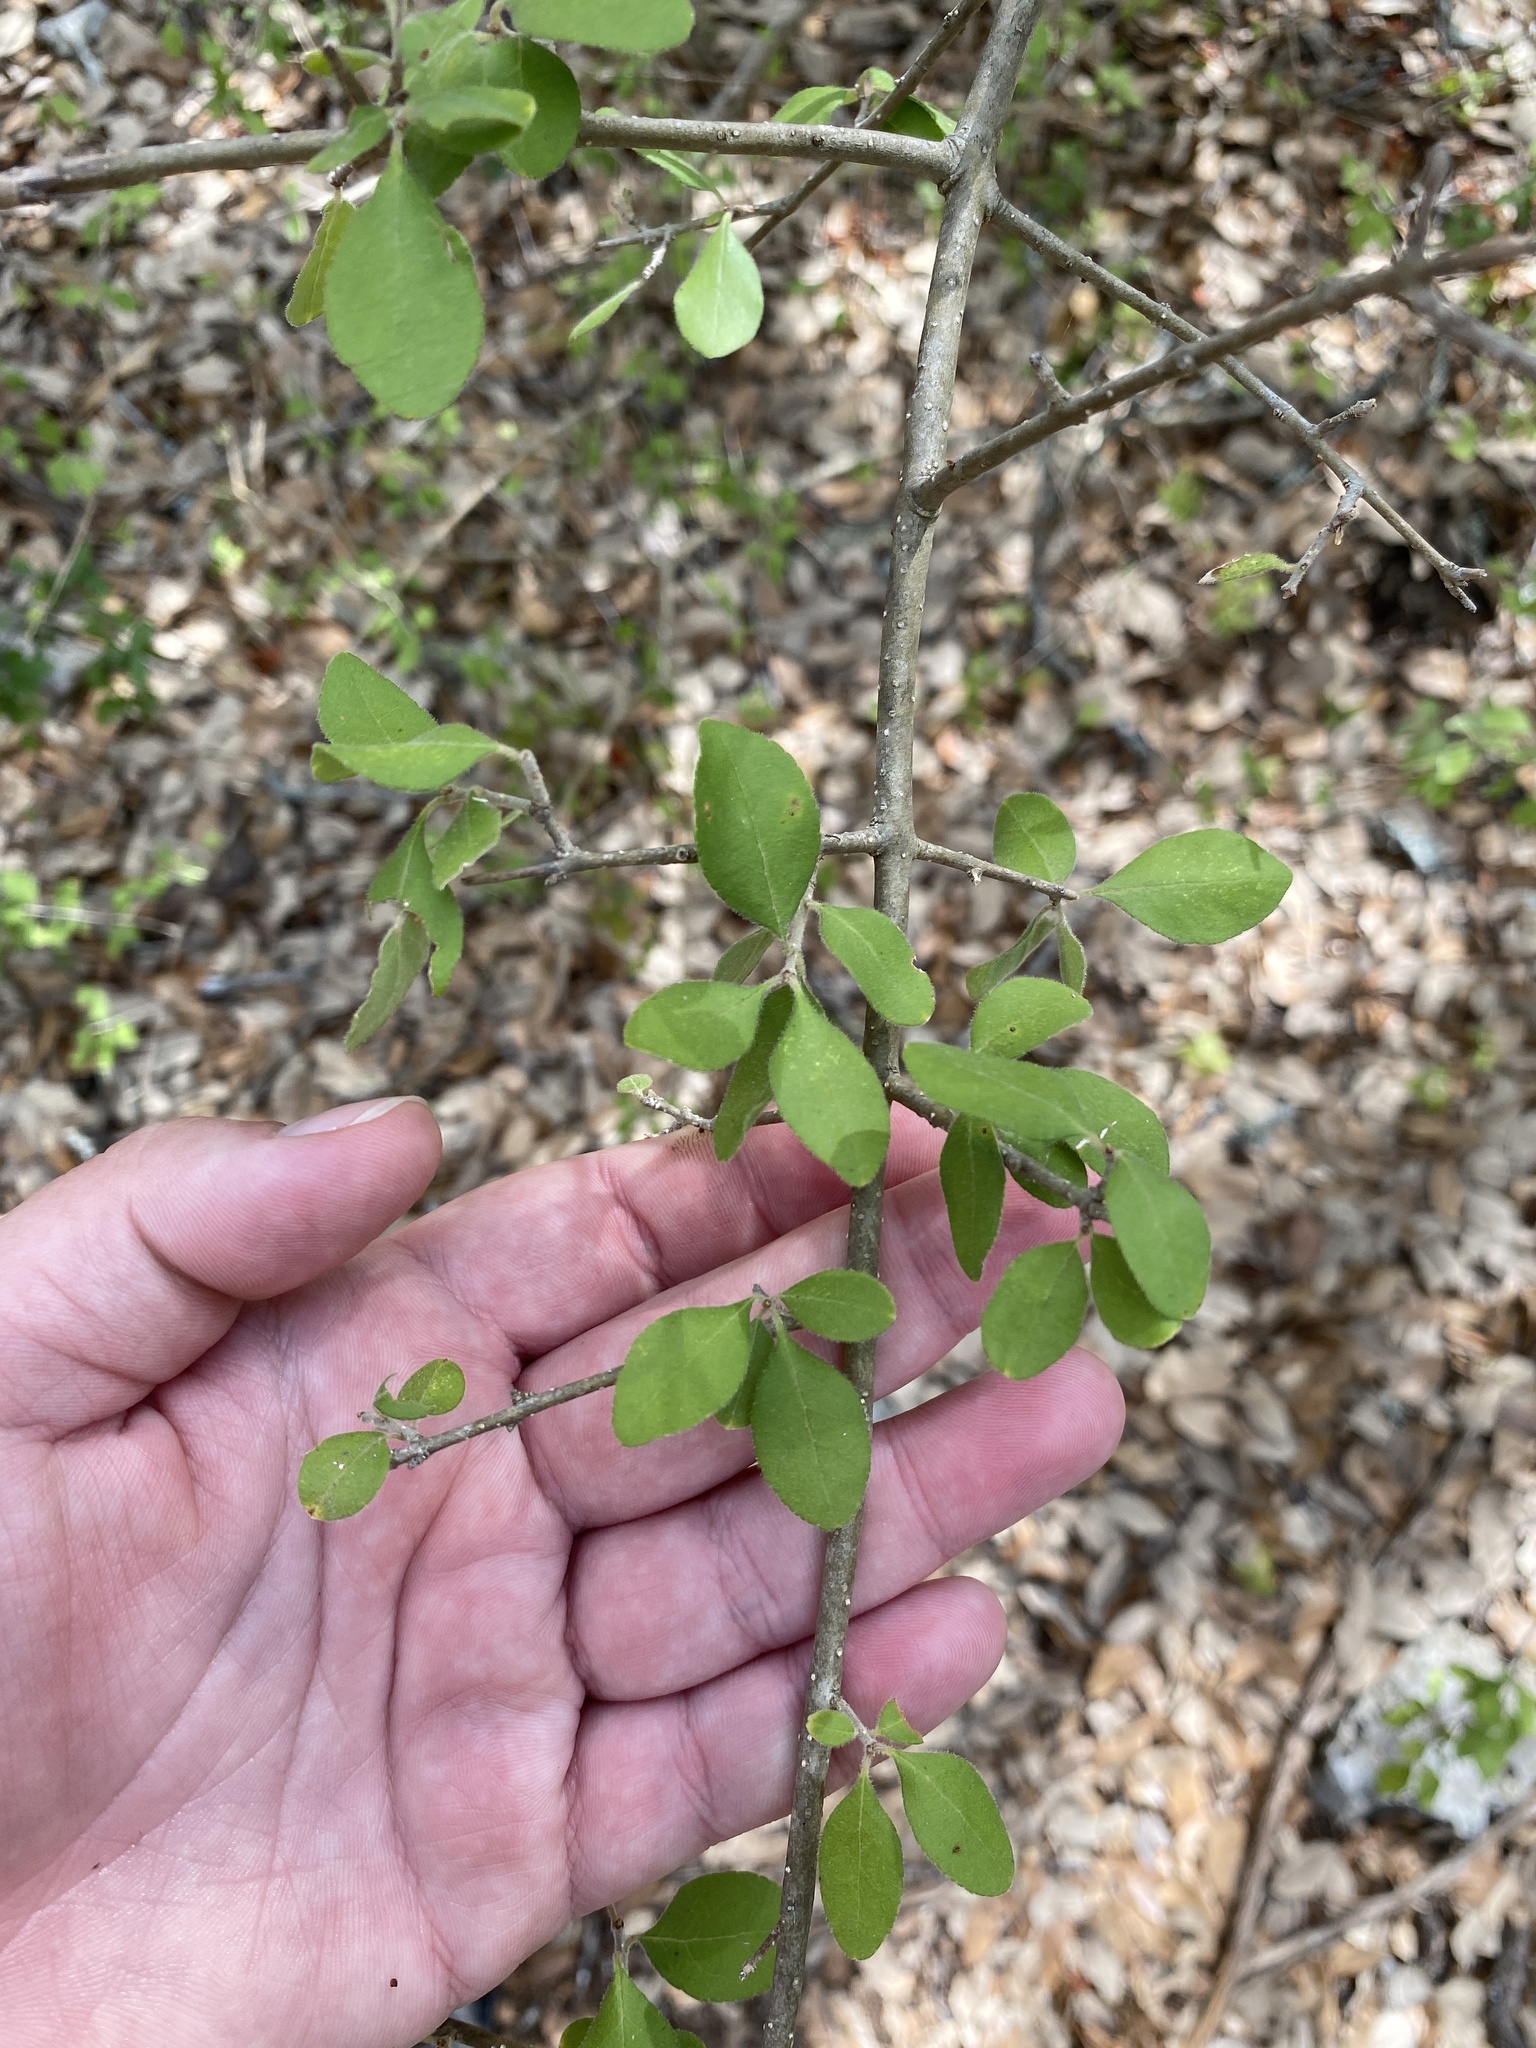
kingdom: Plantae
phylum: Tracheophyta
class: Magnoliopsida
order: Lamiales
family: Oleaceae
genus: Forestiera
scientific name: Forestiera pubescens
